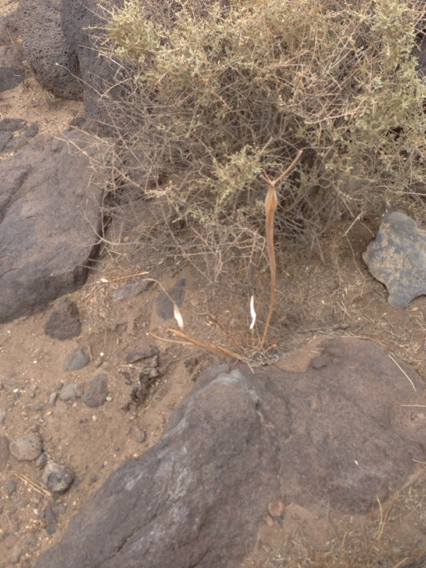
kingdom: Plantae
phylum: Tracheophyta
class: Magnoliopsida
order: Caryophyllales
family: Polygonaceae
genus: Eriogonum
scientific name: Eriogonum inflatum
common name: Desert trumpet
